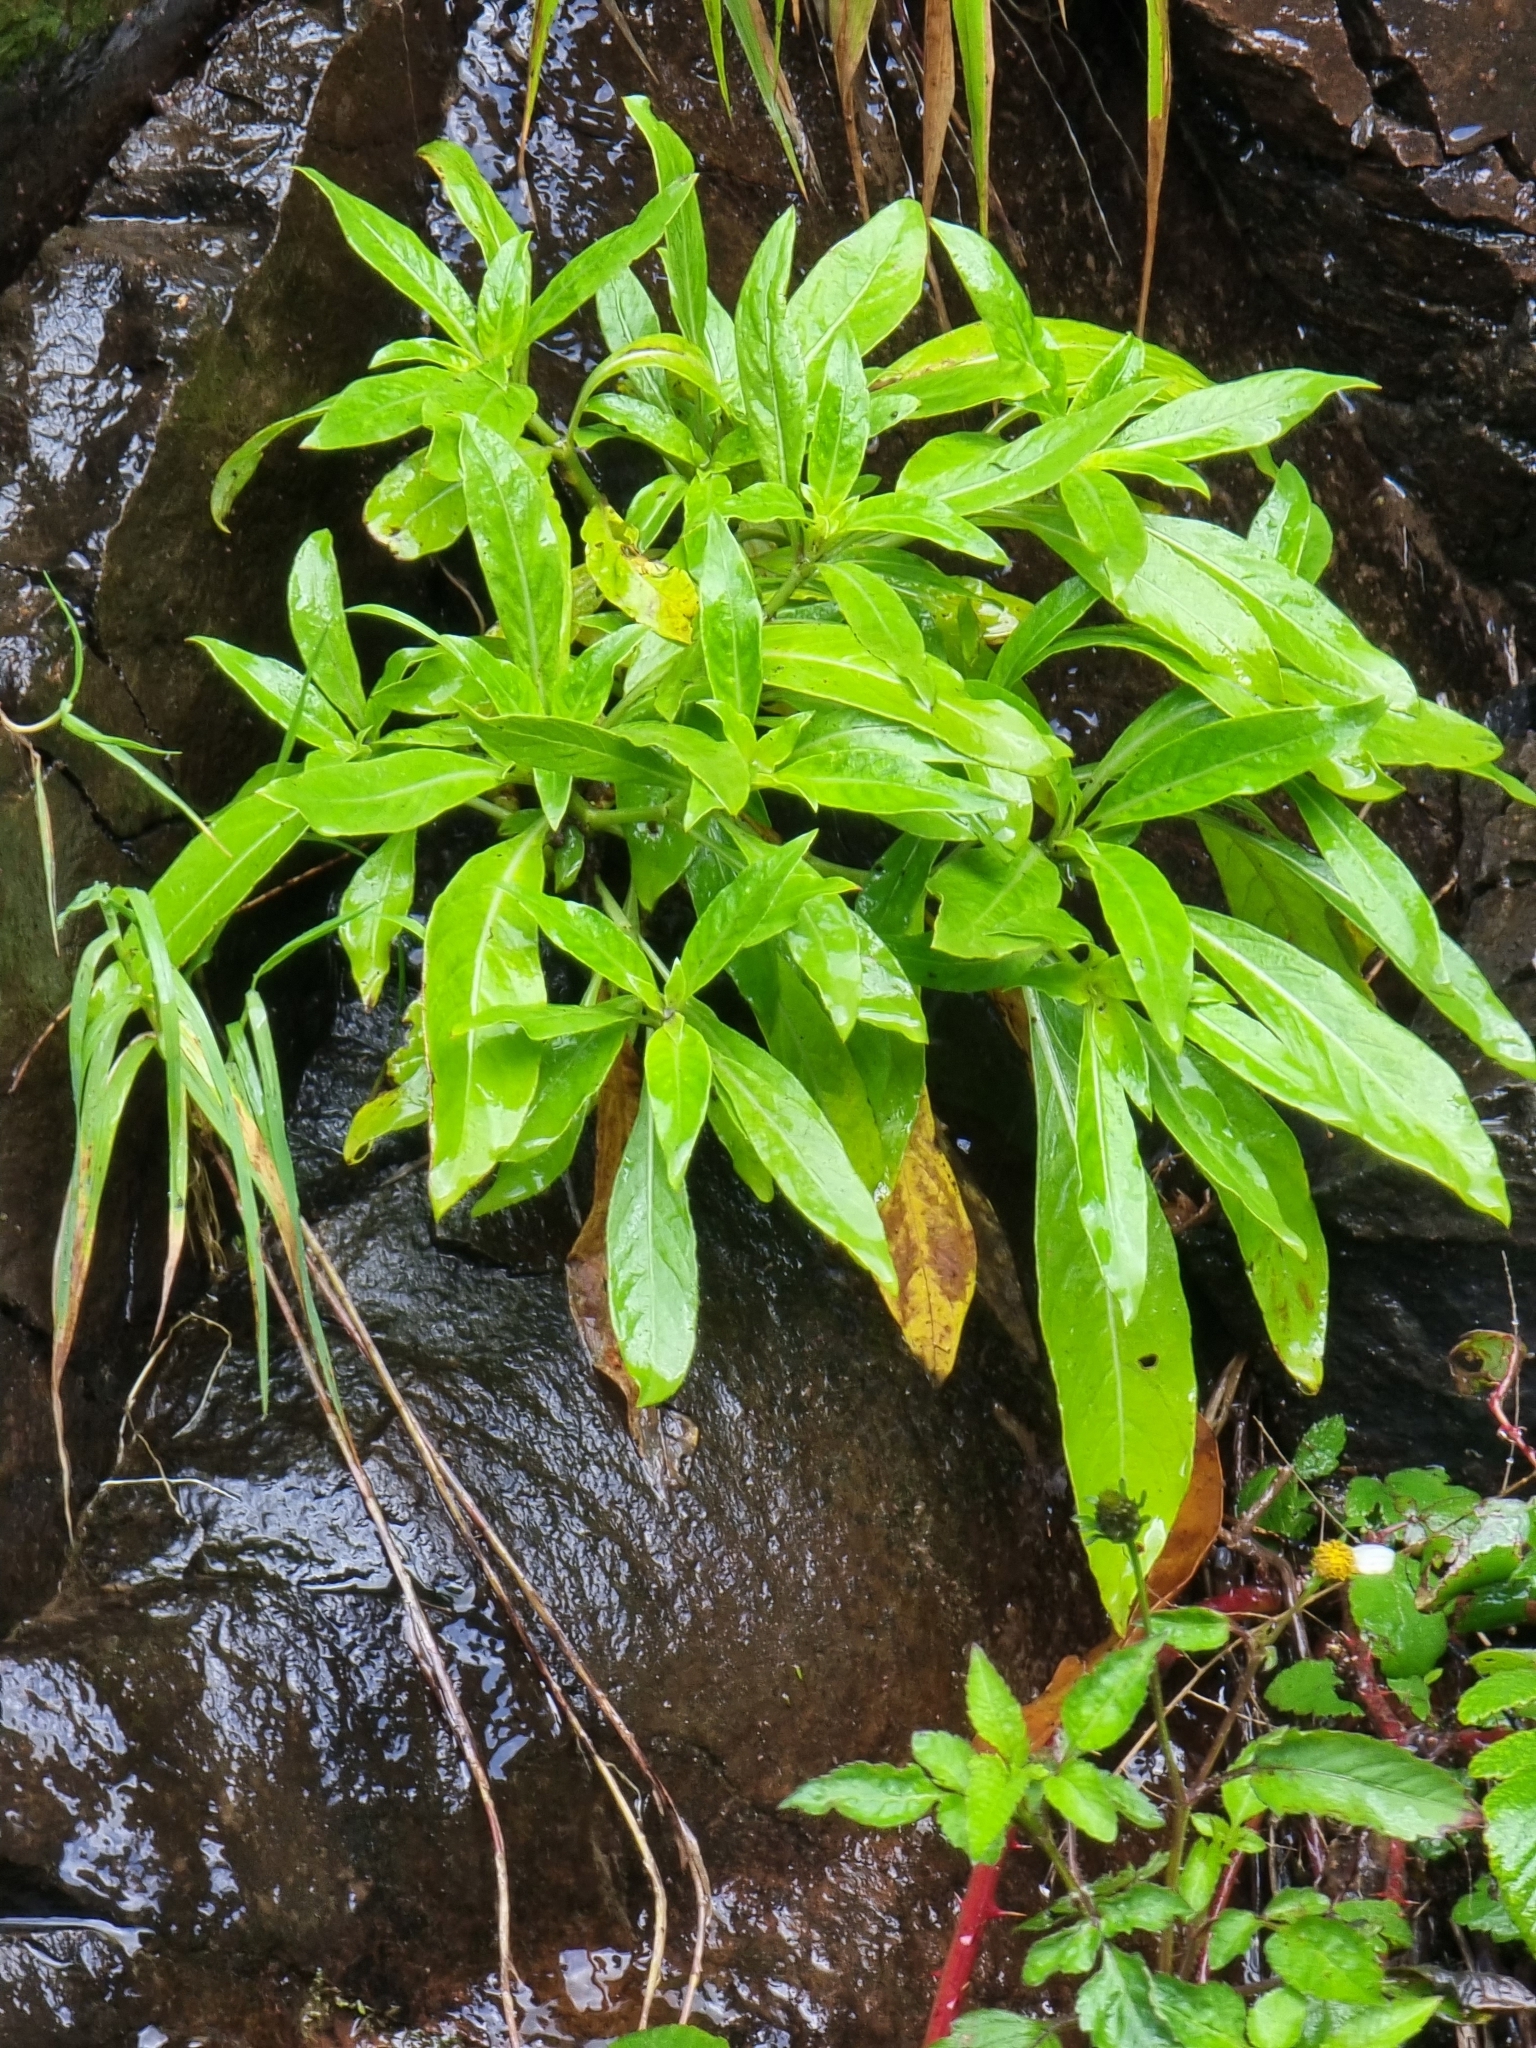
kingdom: Plantae
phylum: Tracheophyta
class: Magnoliopsida
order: Gentianales
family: Rubiaceae
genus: Phyllis
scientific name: Phyllis nobla
